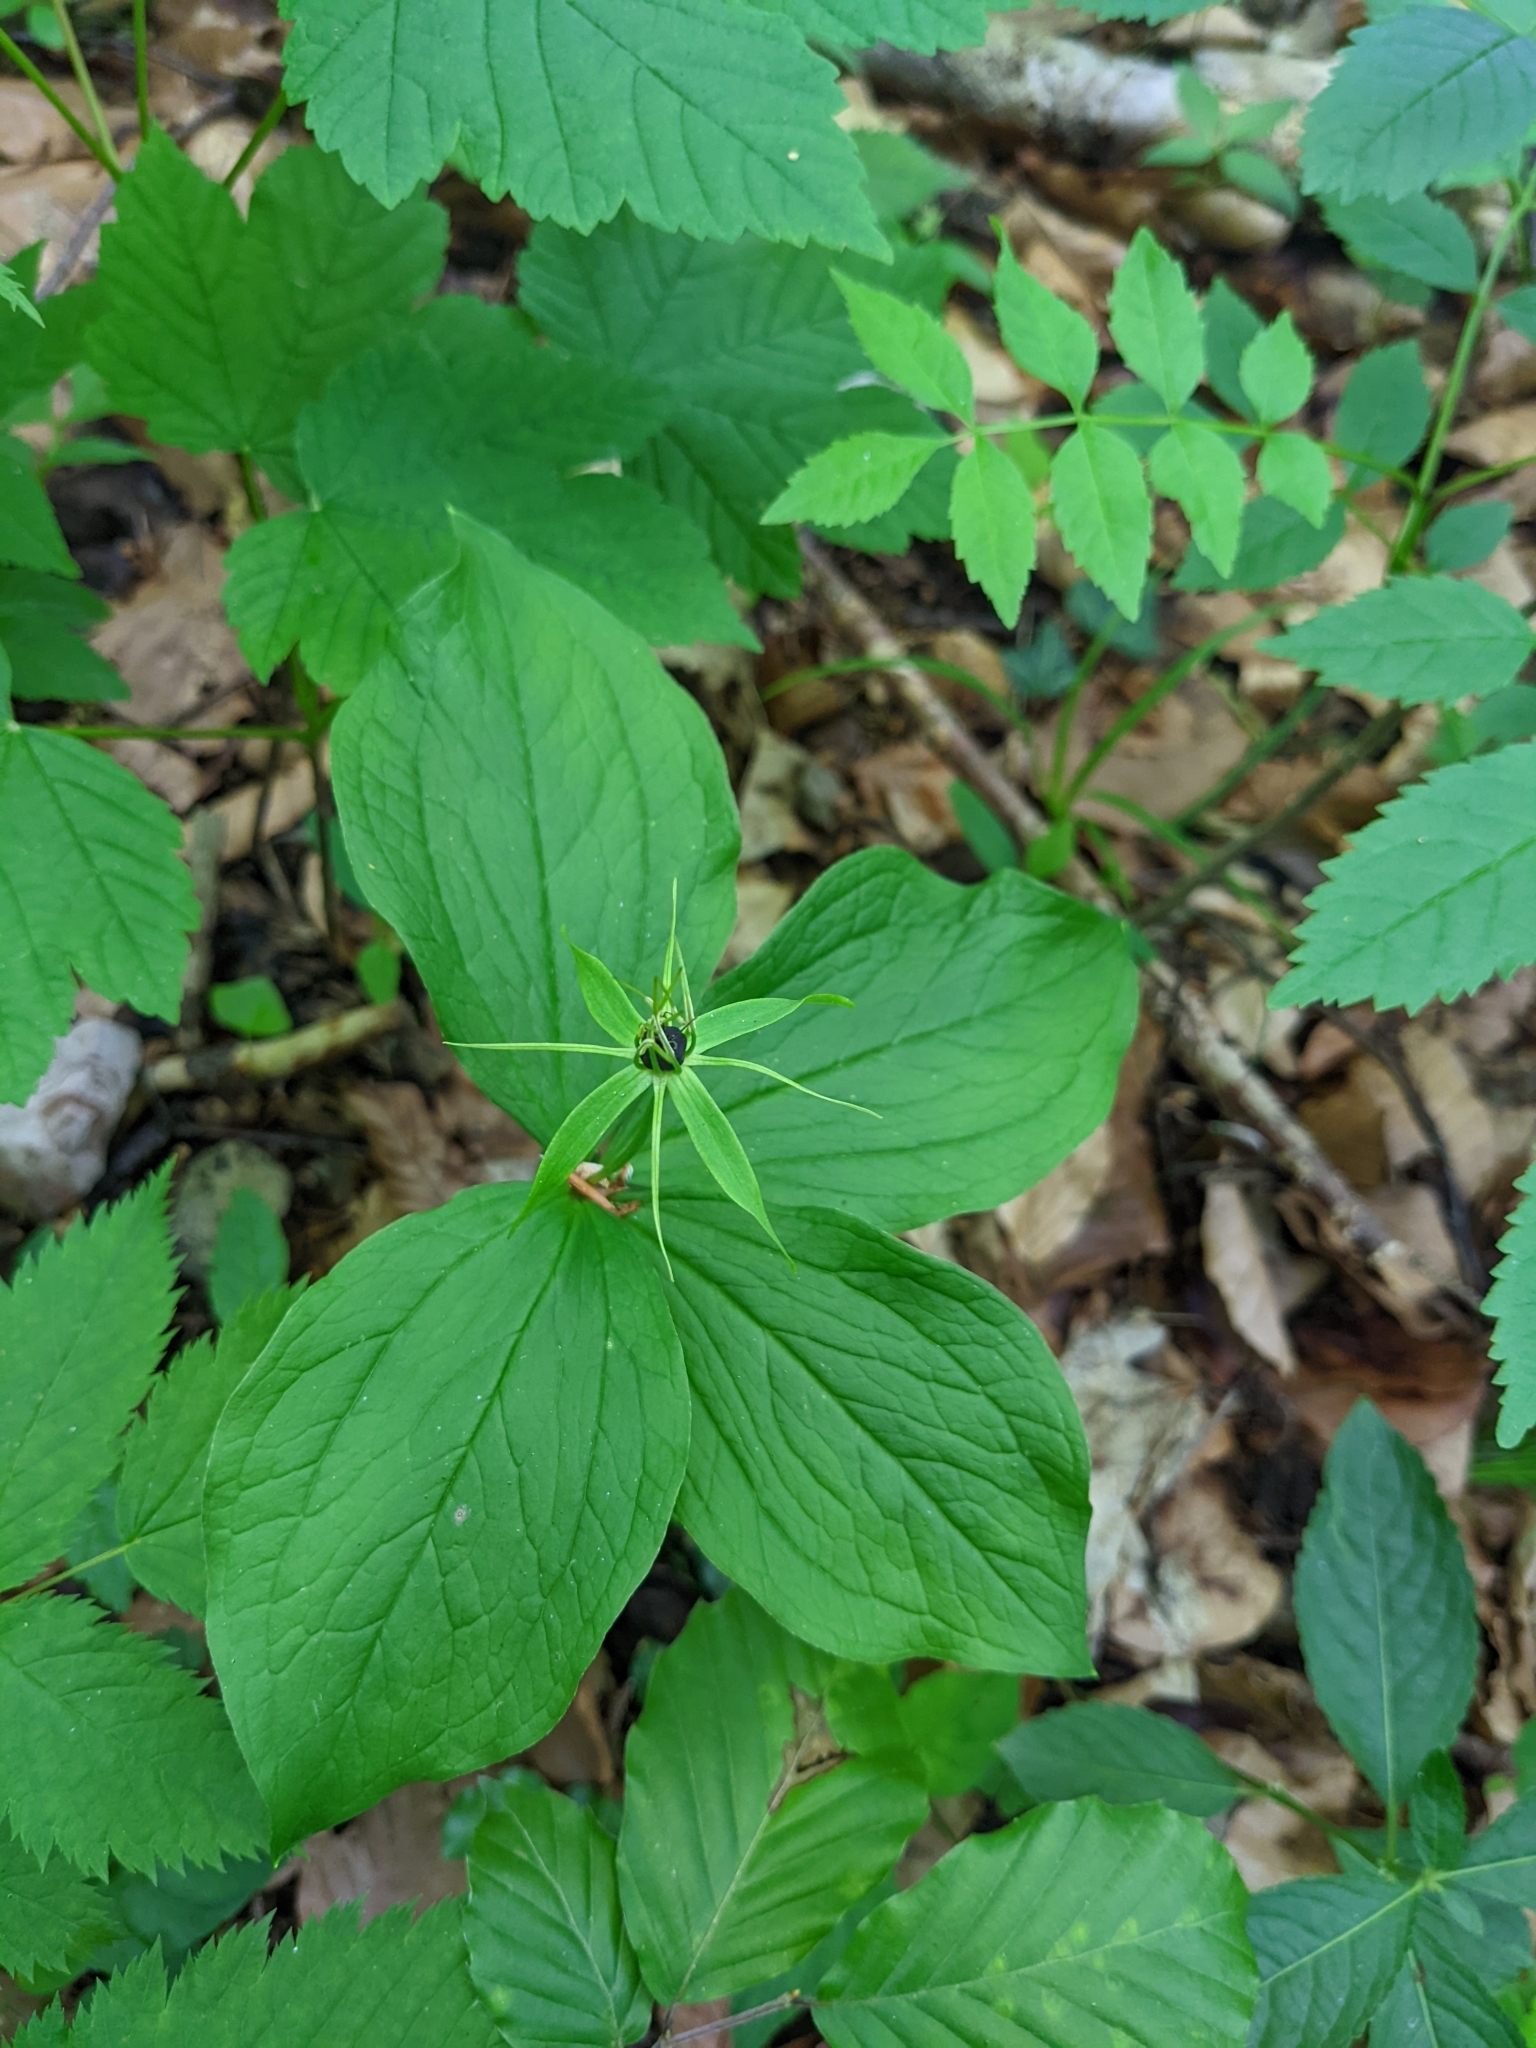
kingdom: Plantae
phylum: Tracheophyta
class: Liliopsida
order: Liliales
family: Melanthiaceae
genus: Paris
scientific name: Paris quadrifolia
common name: Herb-paris
